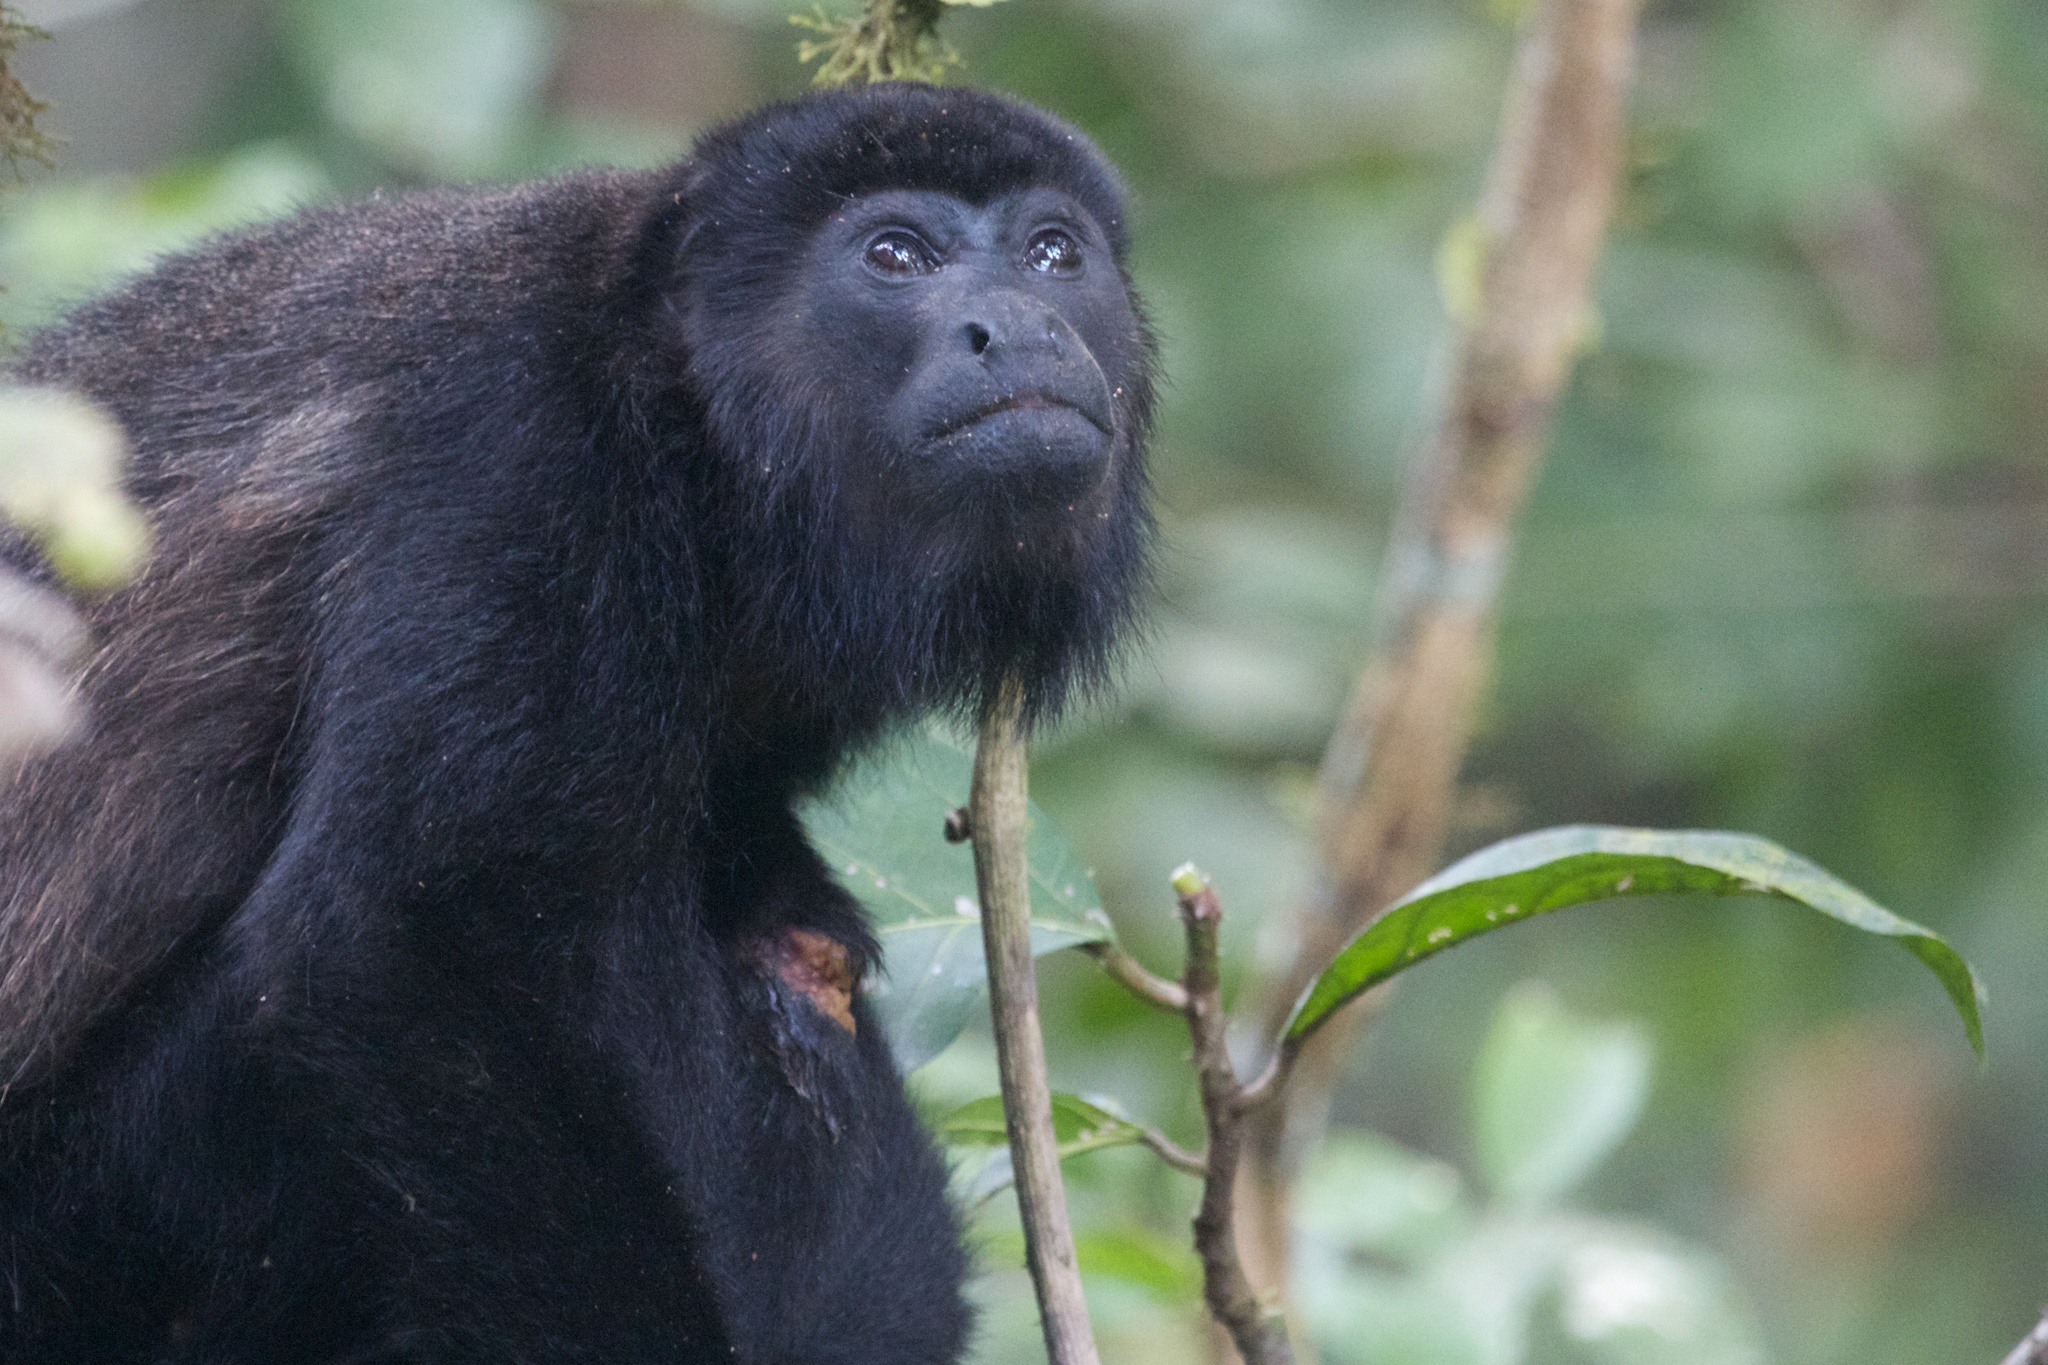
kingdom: Animalia
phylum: Chordata
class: Mammalia
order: Primates
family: Atelidae
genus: Alouatta
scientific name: Alouatta palliata
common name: Mantled howler
